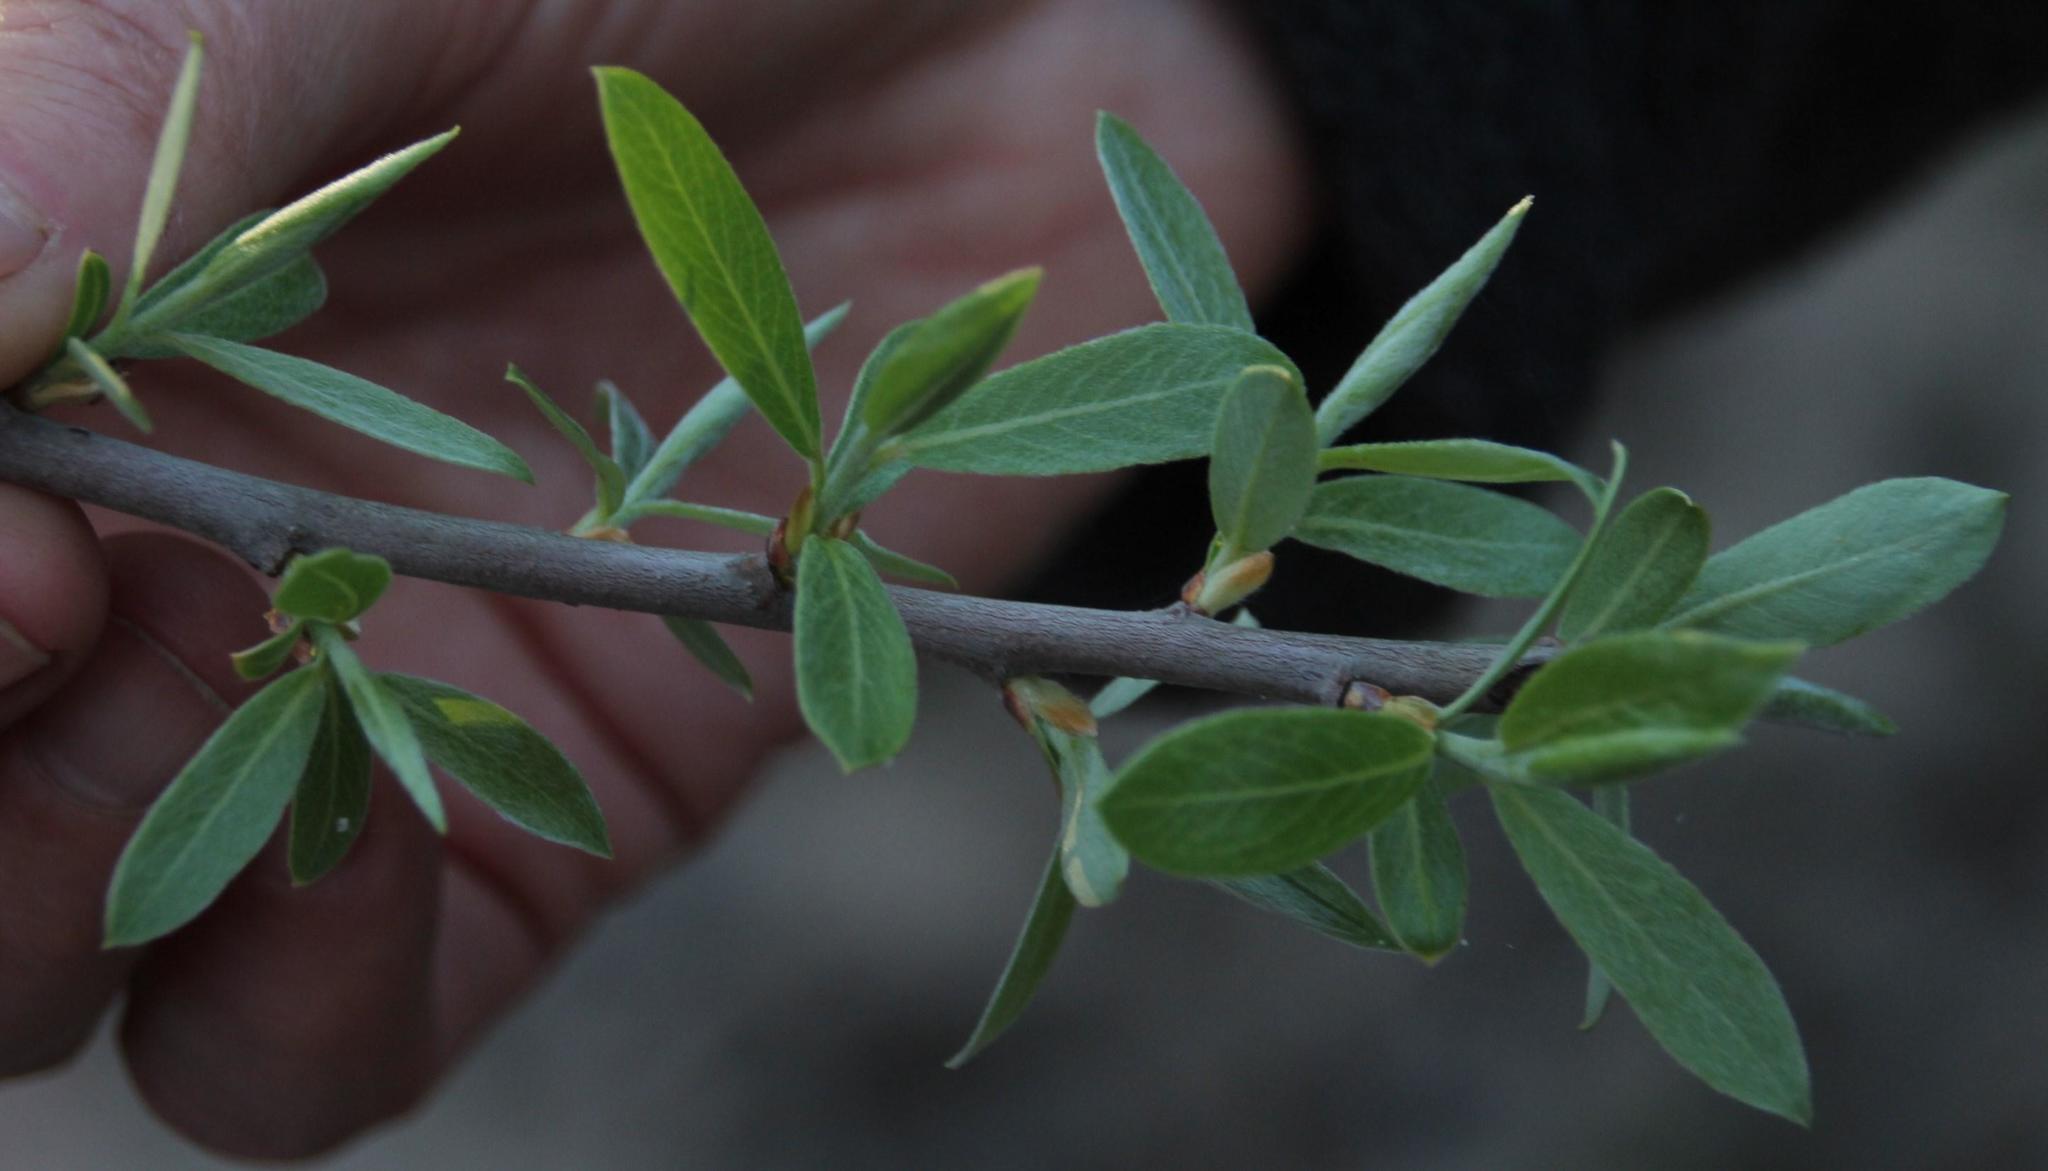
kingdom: Plantae
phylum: Tracheophyta
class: Magnoliopsida
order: Malpighiales
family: Salicaceae
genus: Salix
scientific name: Salix mucronata
